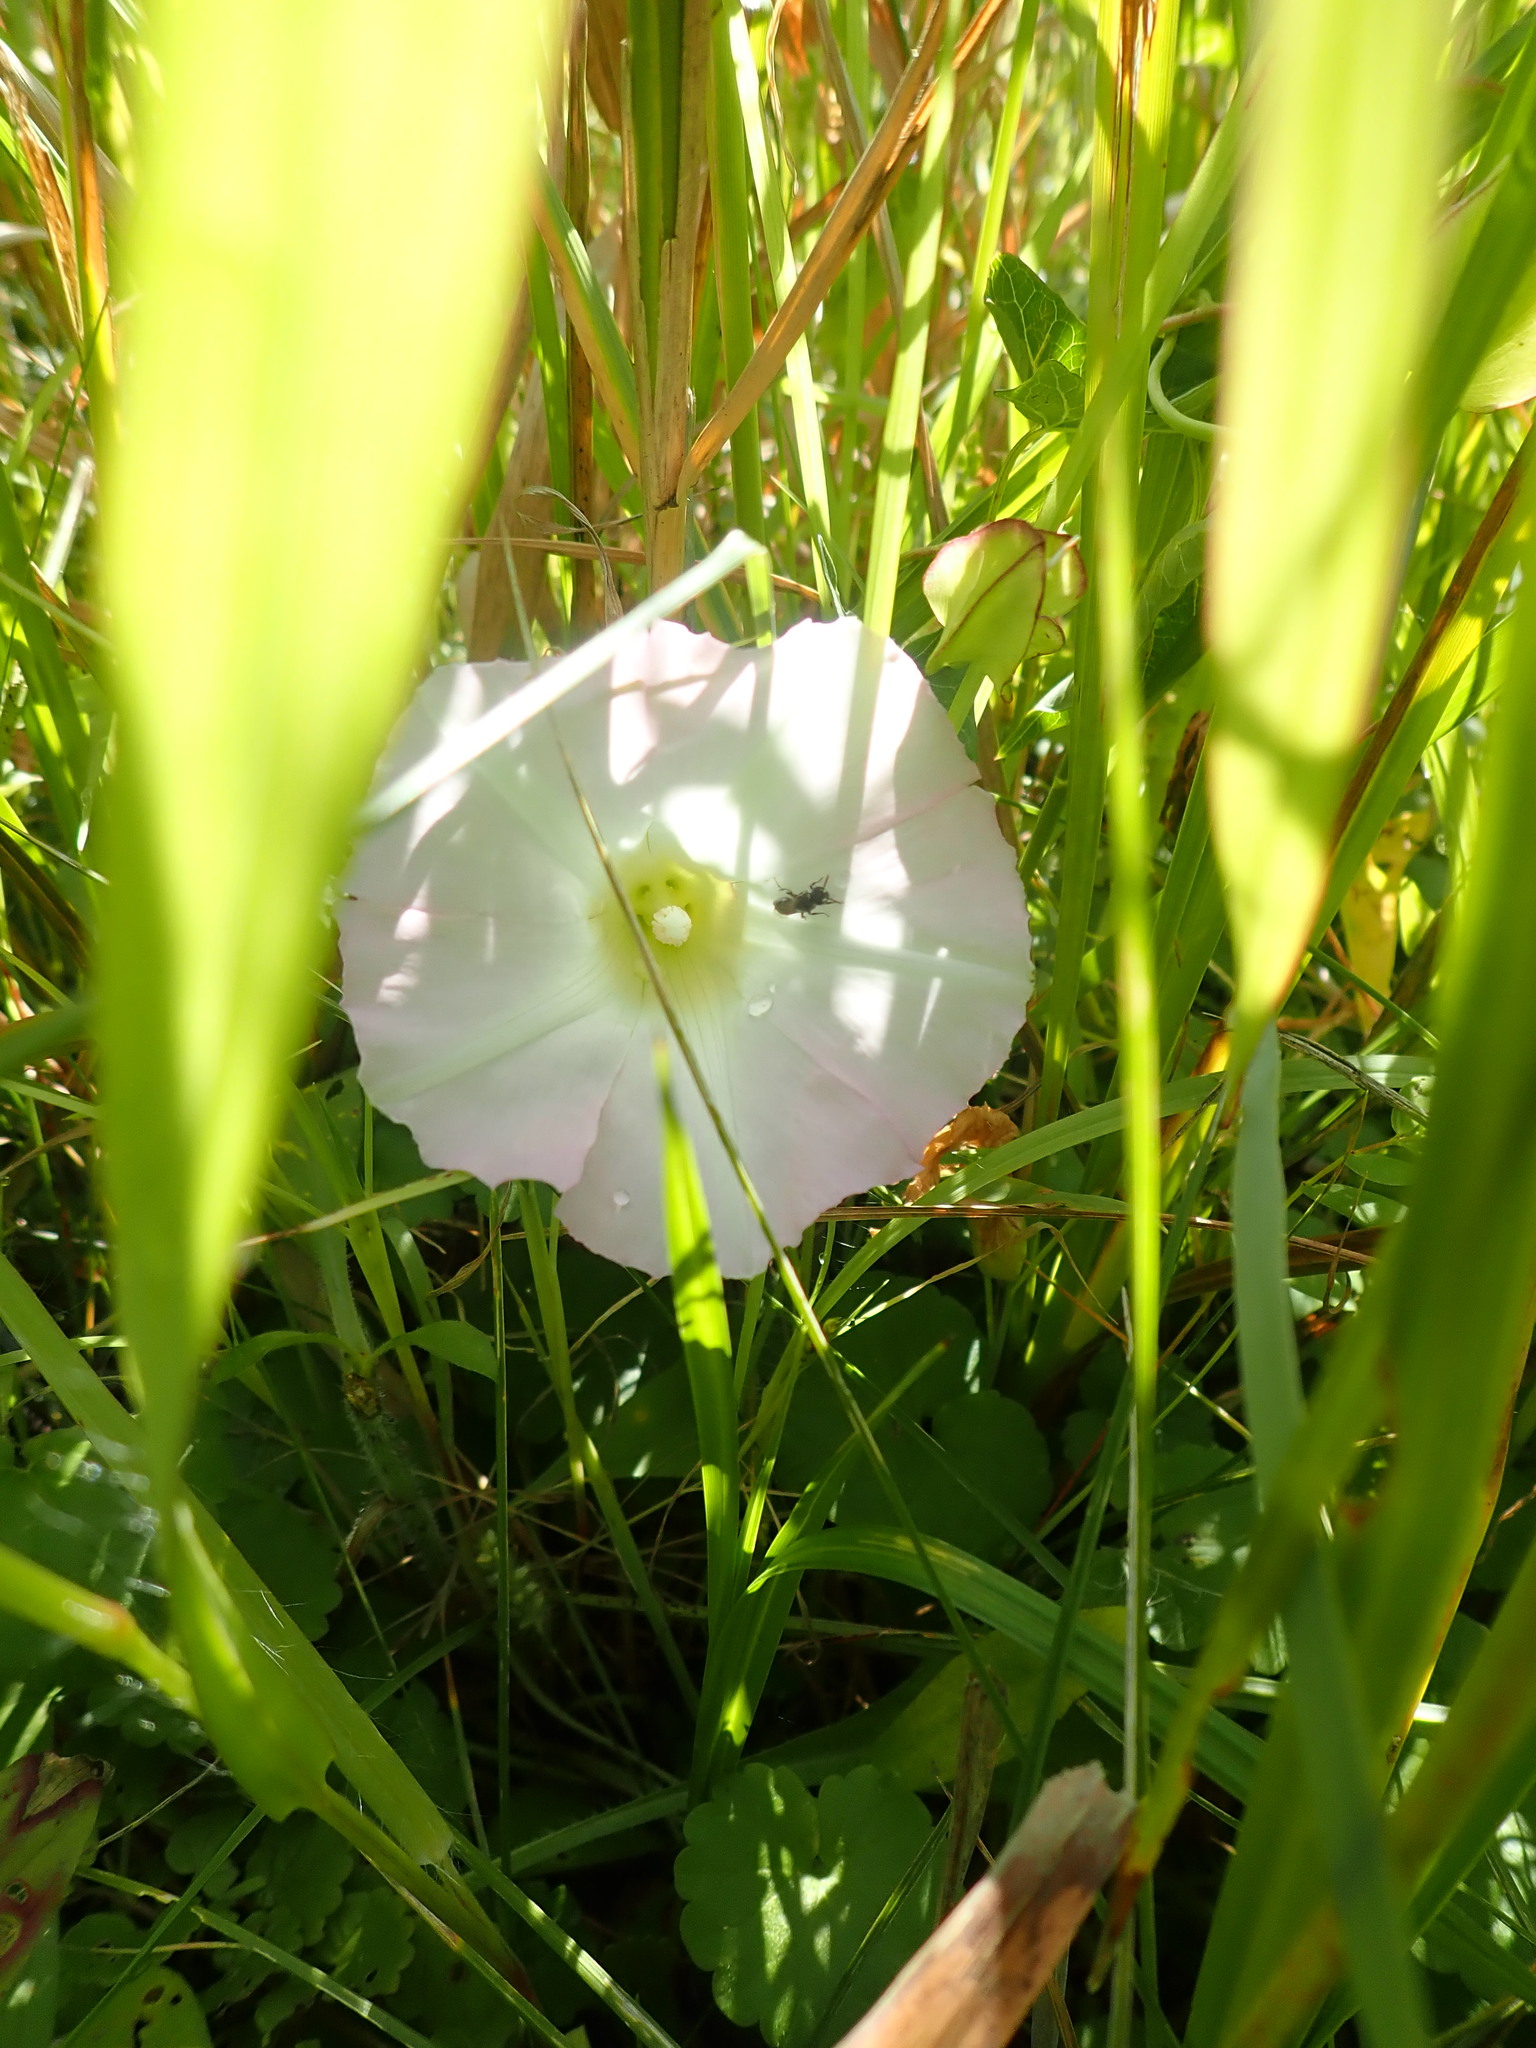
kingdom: Plantae
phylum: Tracheophyta
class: Magnoliopsida
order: Solanales
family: Convolvulaceae
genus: Calystegia
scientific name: Calystegia sepium
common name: Hedge bindweed
